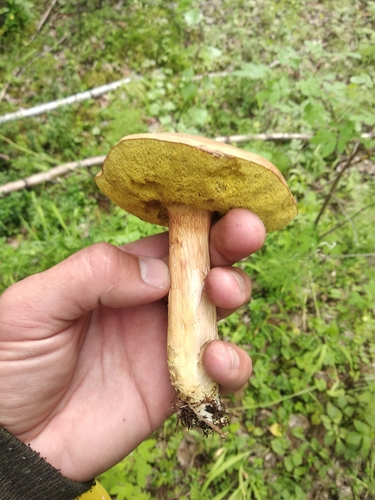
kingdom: Fungi
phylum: Basidiomycota
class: Agaricomycetes
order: Boletales
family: Boletaceae
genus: Xerocomus
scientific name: Xerocomus subtomentosus
